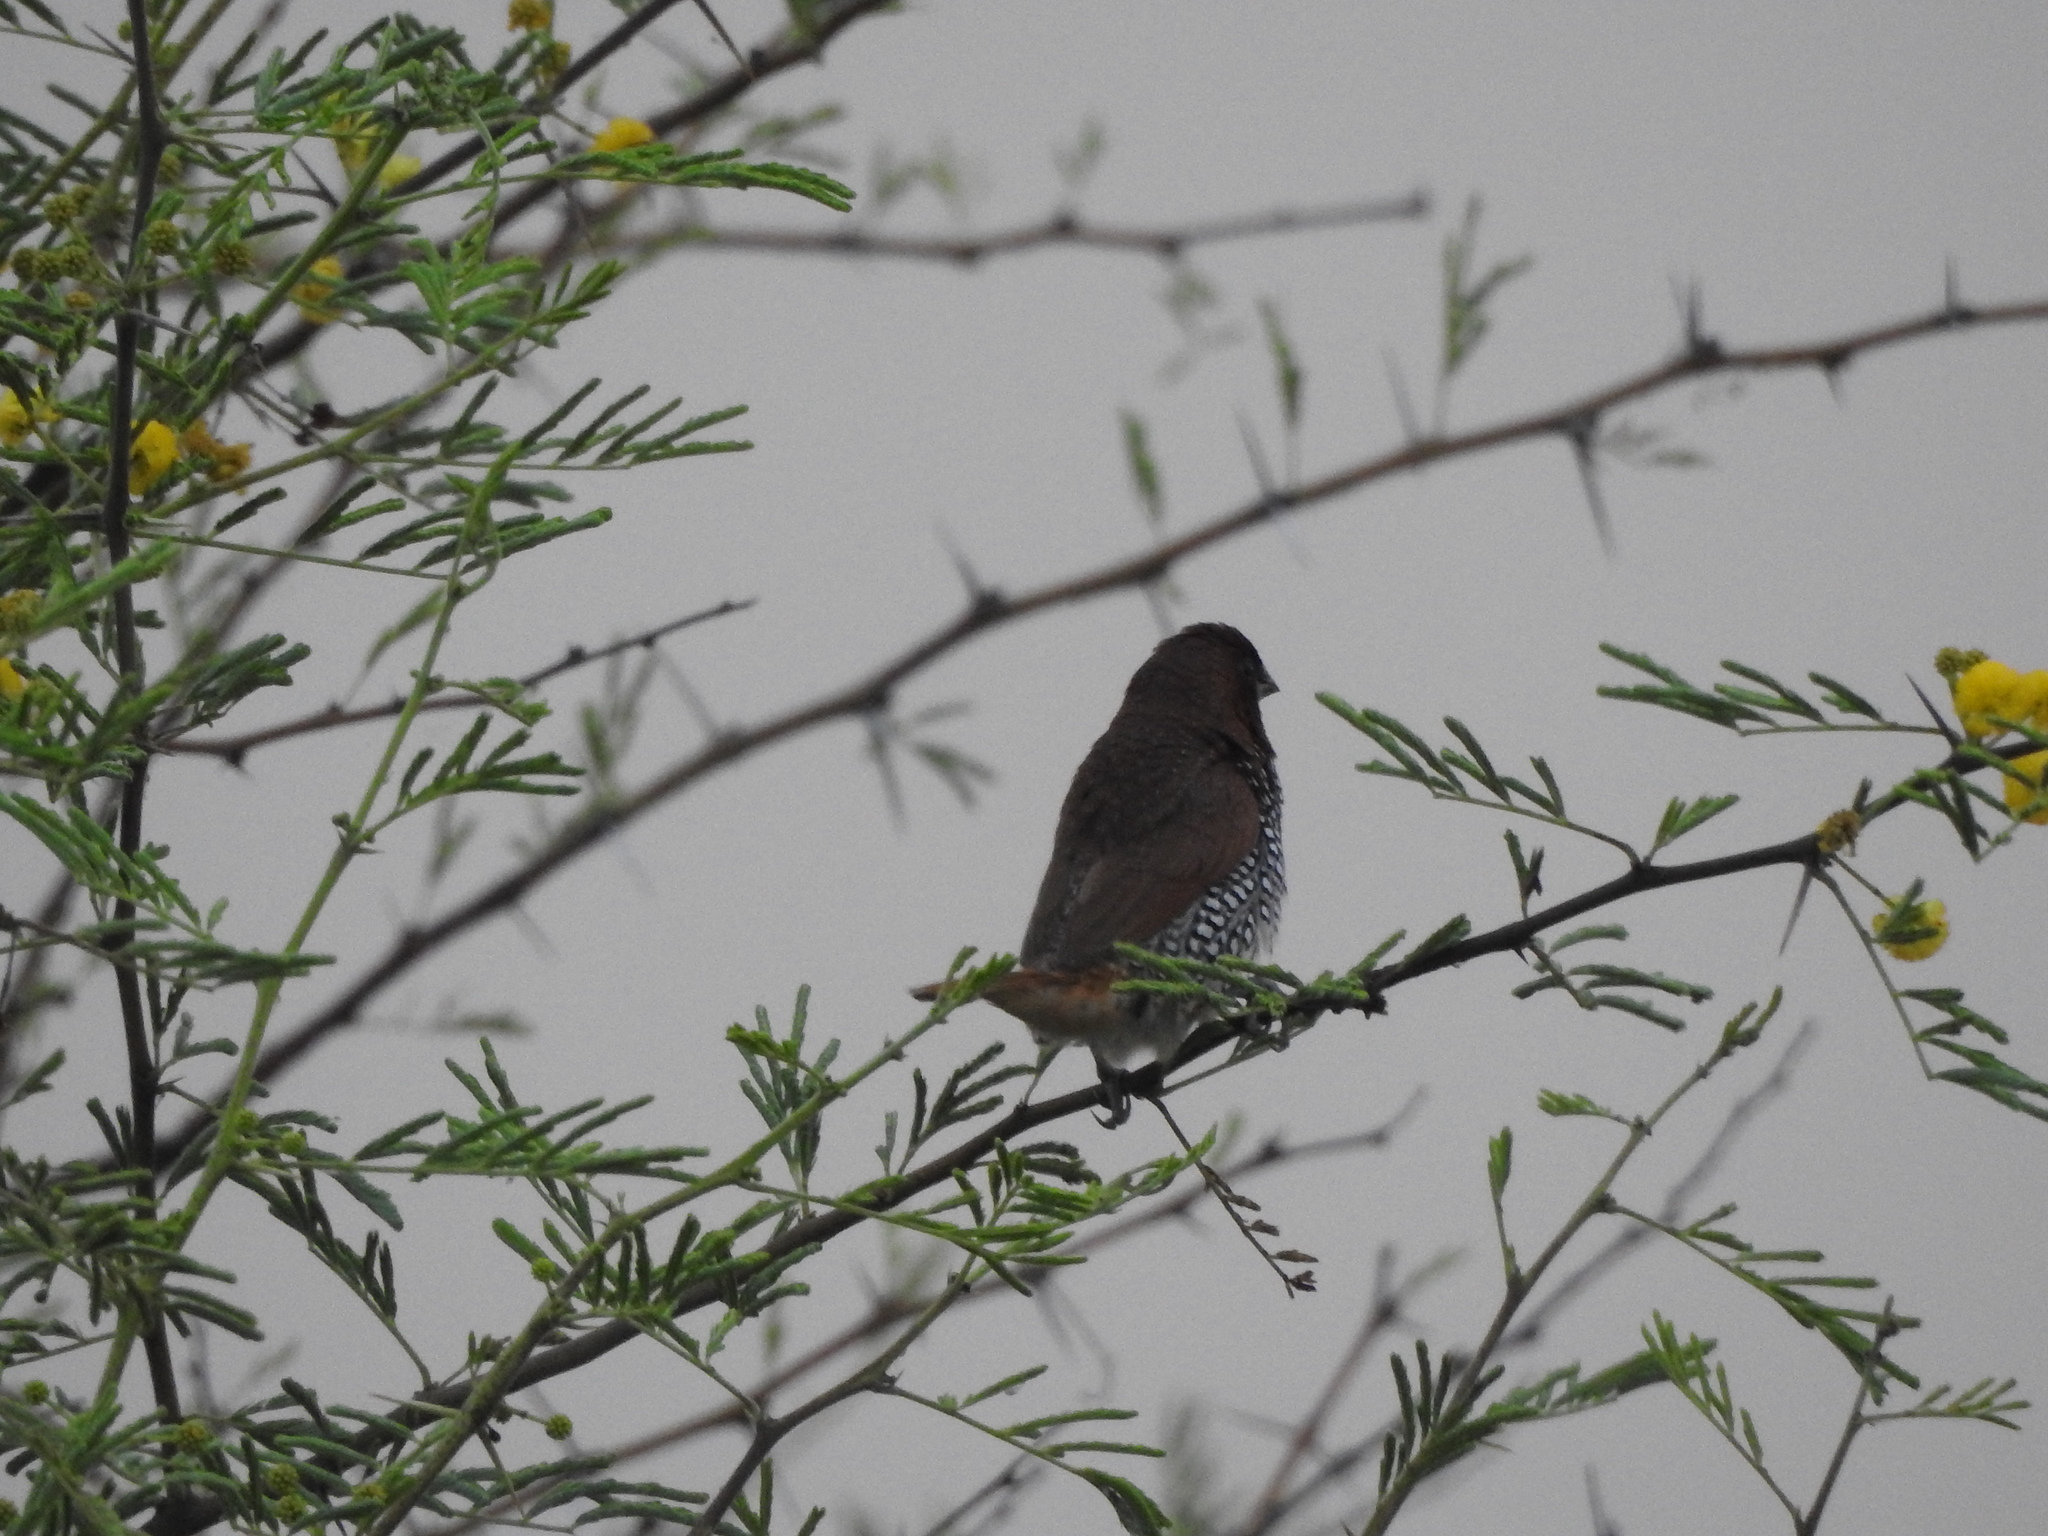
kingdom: Animalia
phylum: Chordata
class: Aves
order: Passeriformes
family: Estrildidae
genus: Lonchura
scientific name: Lonchura punctulata
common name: Scaly-breasted munia
